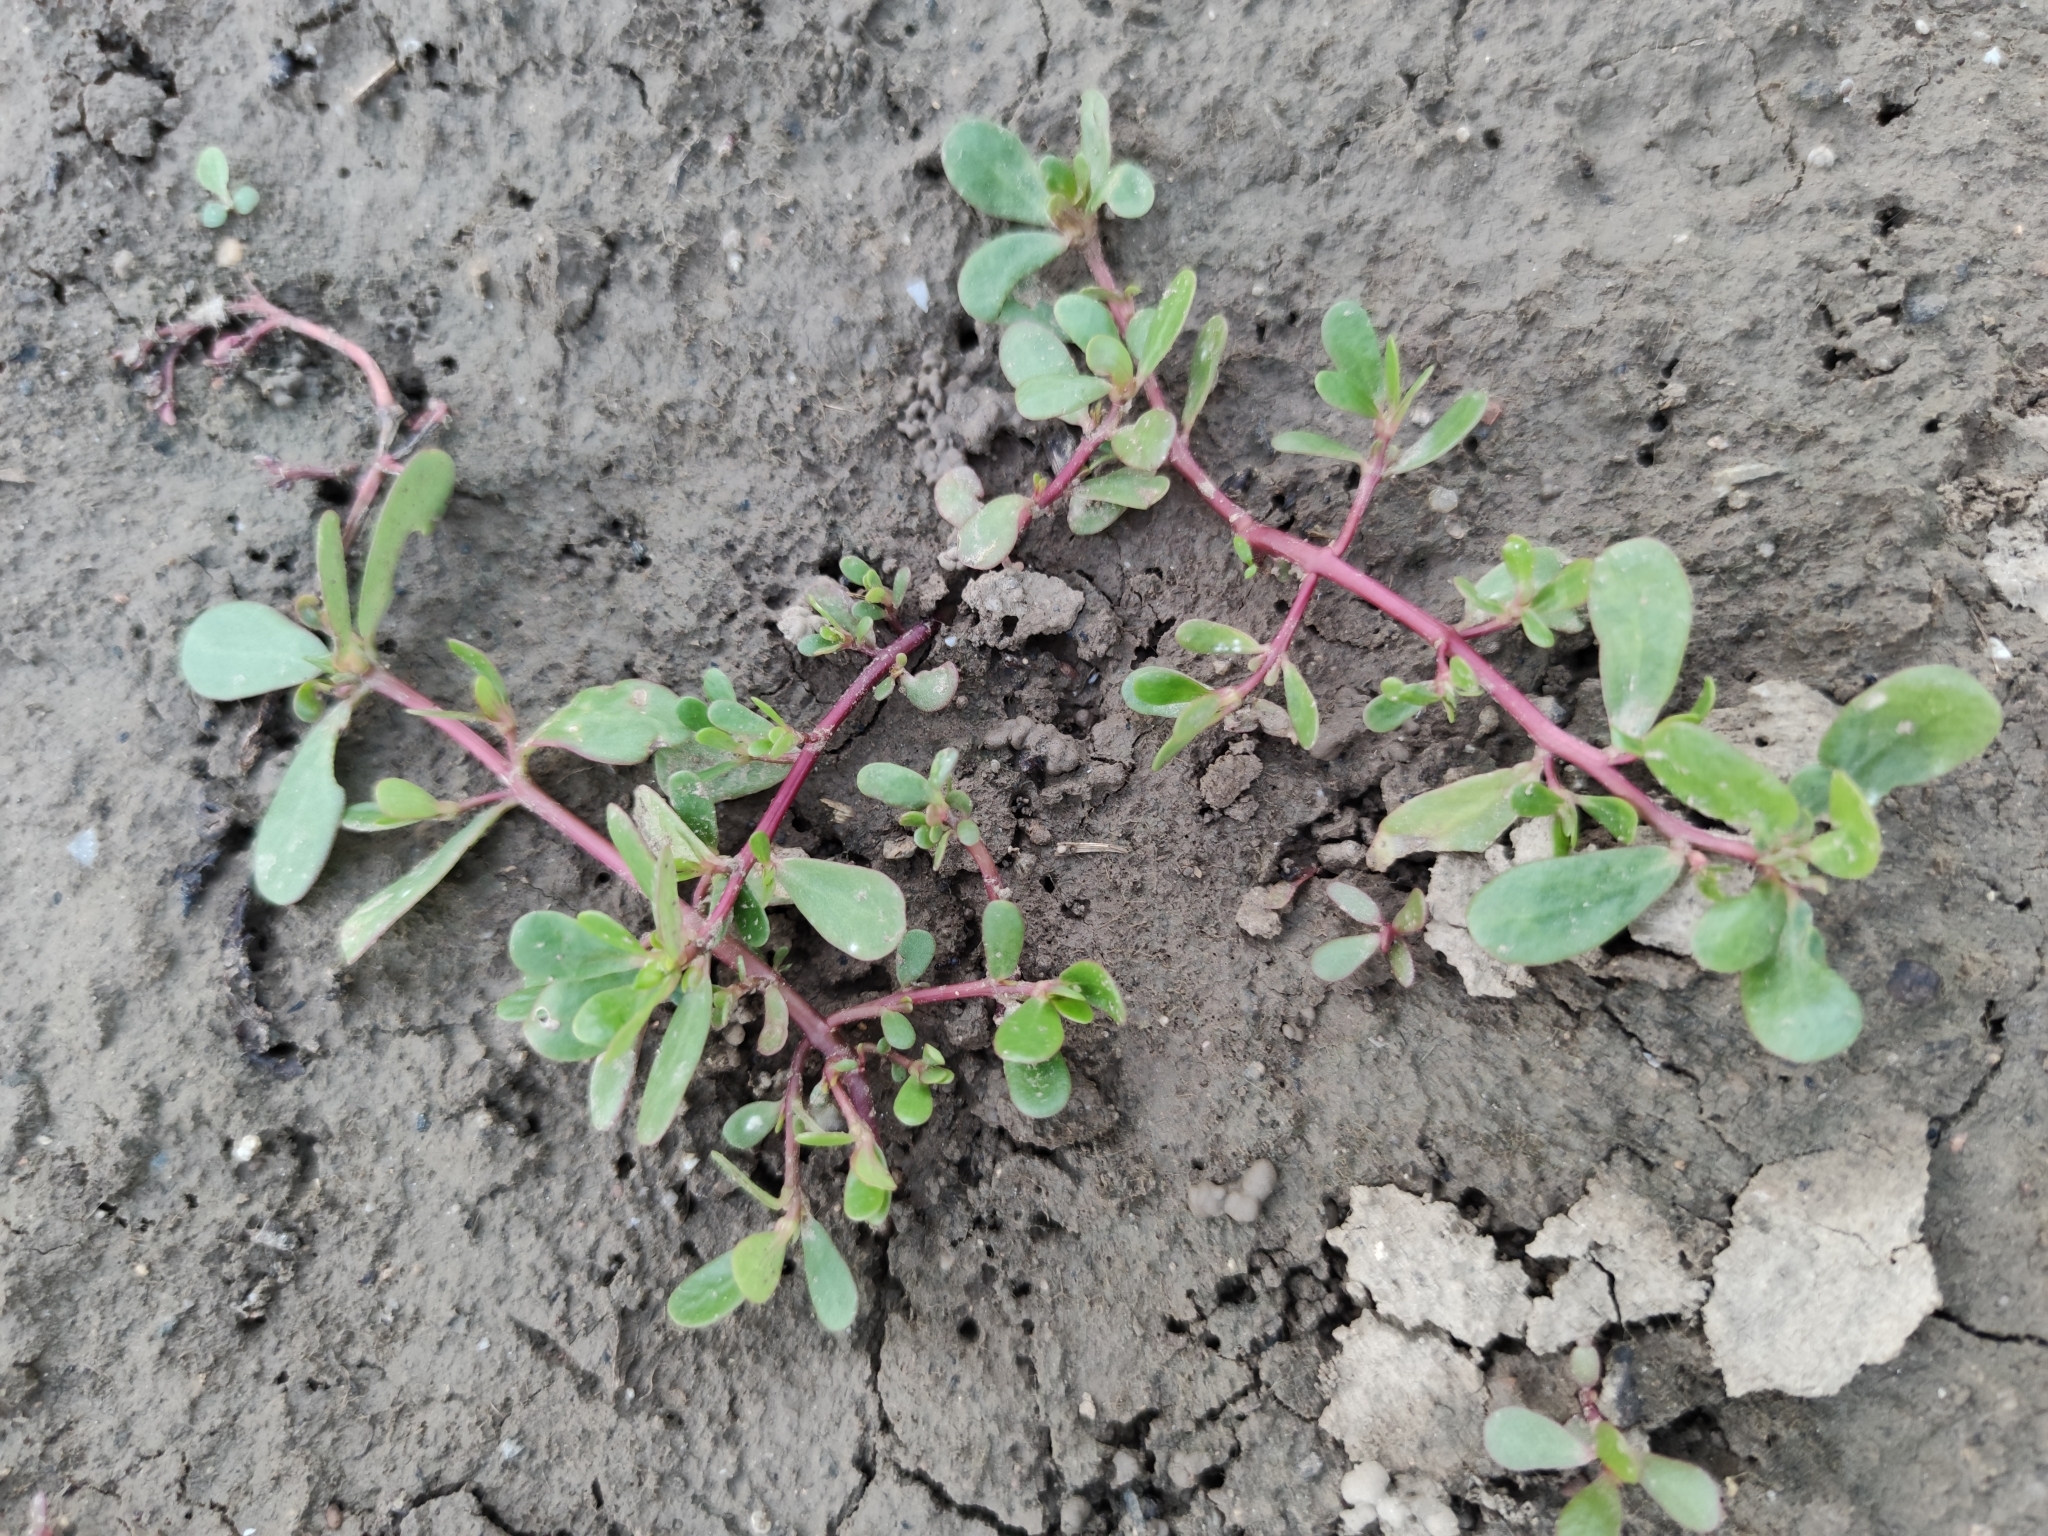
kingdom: Plantae
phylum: Tracheophyta
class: Magnoliopsida
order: Caryophyllales
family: Portulacaceae
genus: Portulaca
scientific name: Portulaca oleracea
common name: Common purslane
